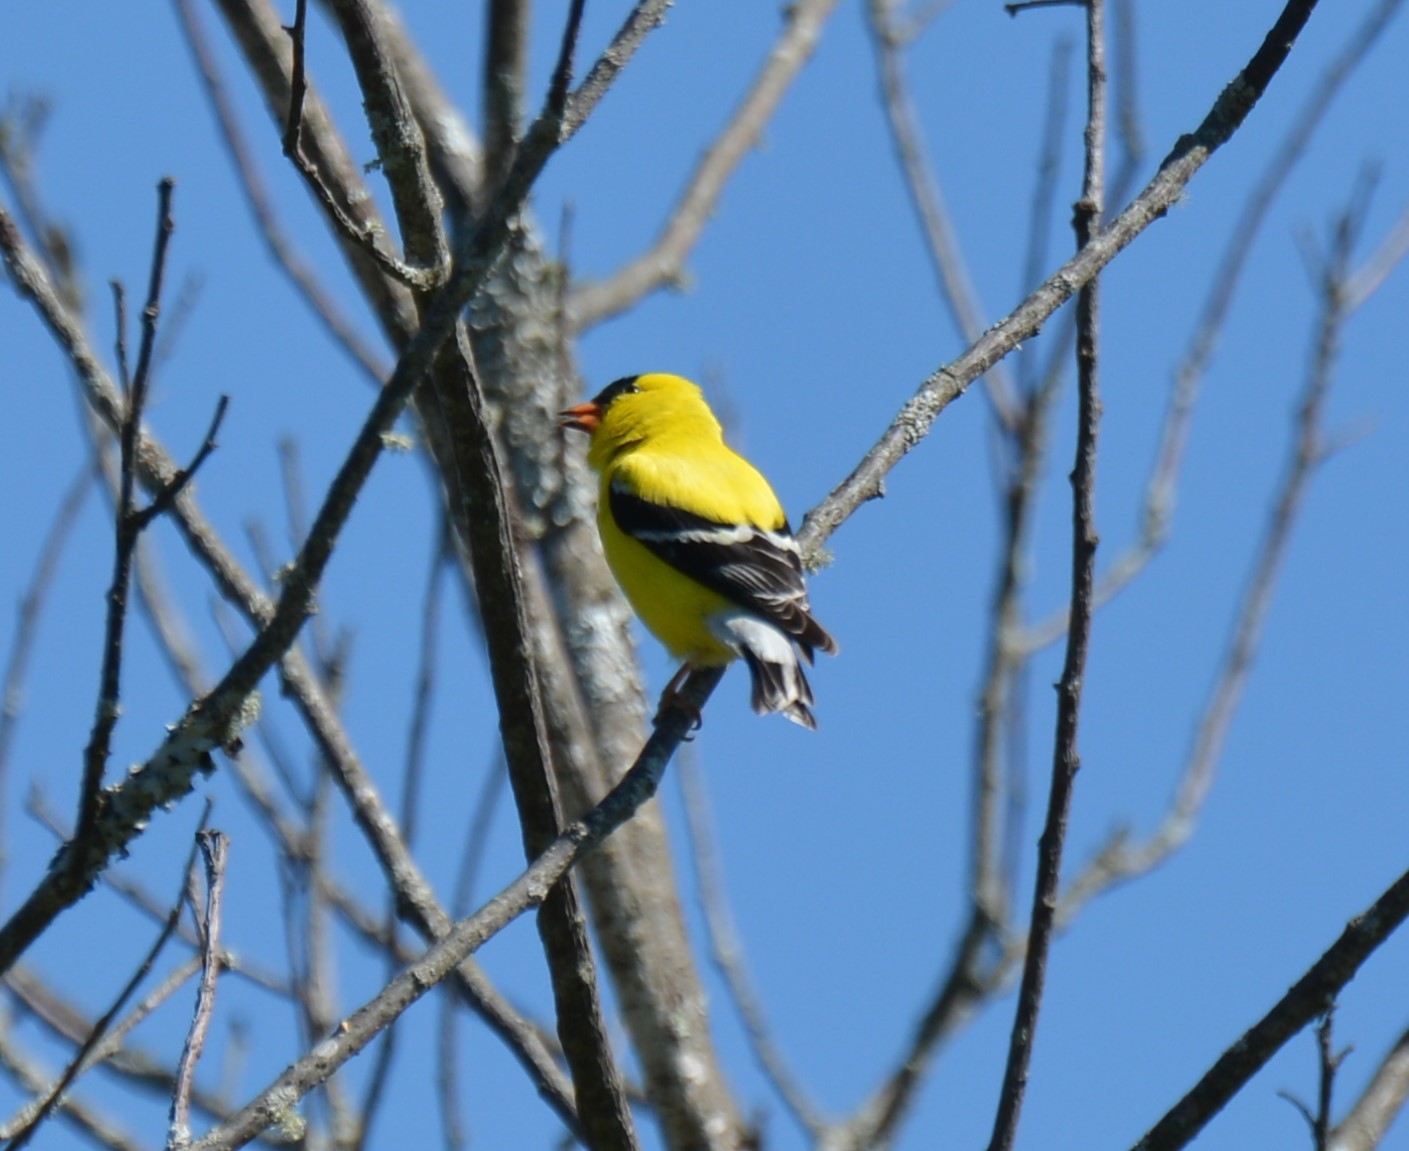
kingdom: Animalia
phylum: Chordata
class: Aves
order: Passeriformes
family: Fringillidae
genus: Spinus
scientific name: Spinus tristis
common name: American goldfinch
